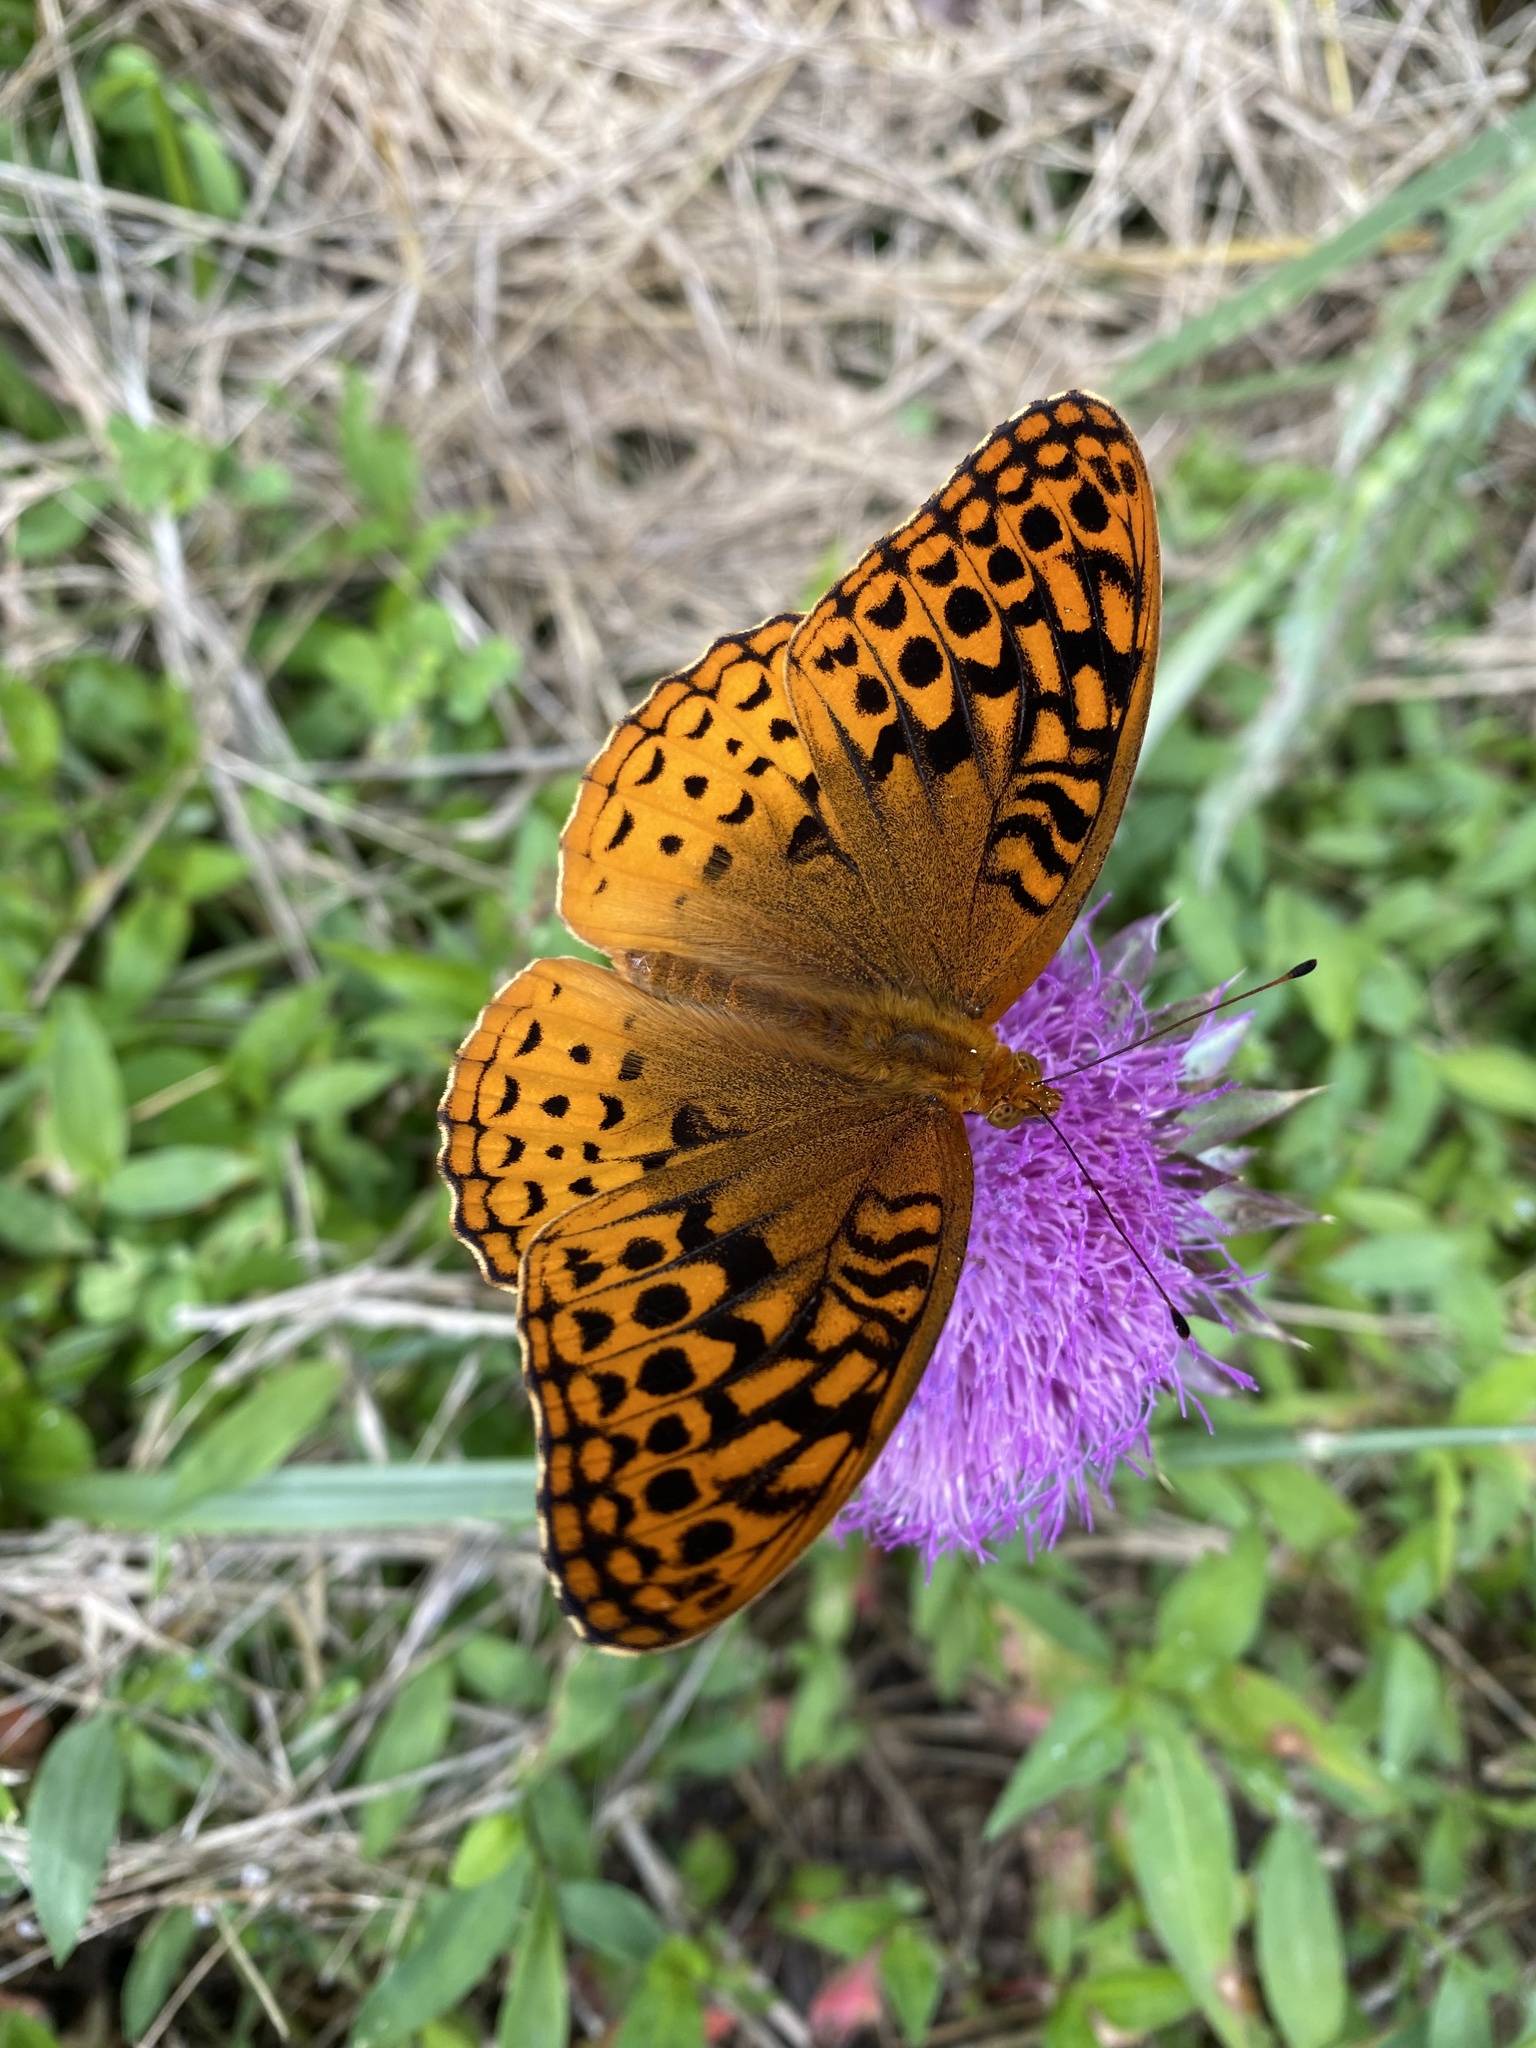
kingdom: Animalia
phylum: Arthropoda
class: Insecta
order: Lepidoptera
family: Nymphalidae
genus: Speyeria
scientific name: Speyeria cybele
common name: Great spangled fritillary
